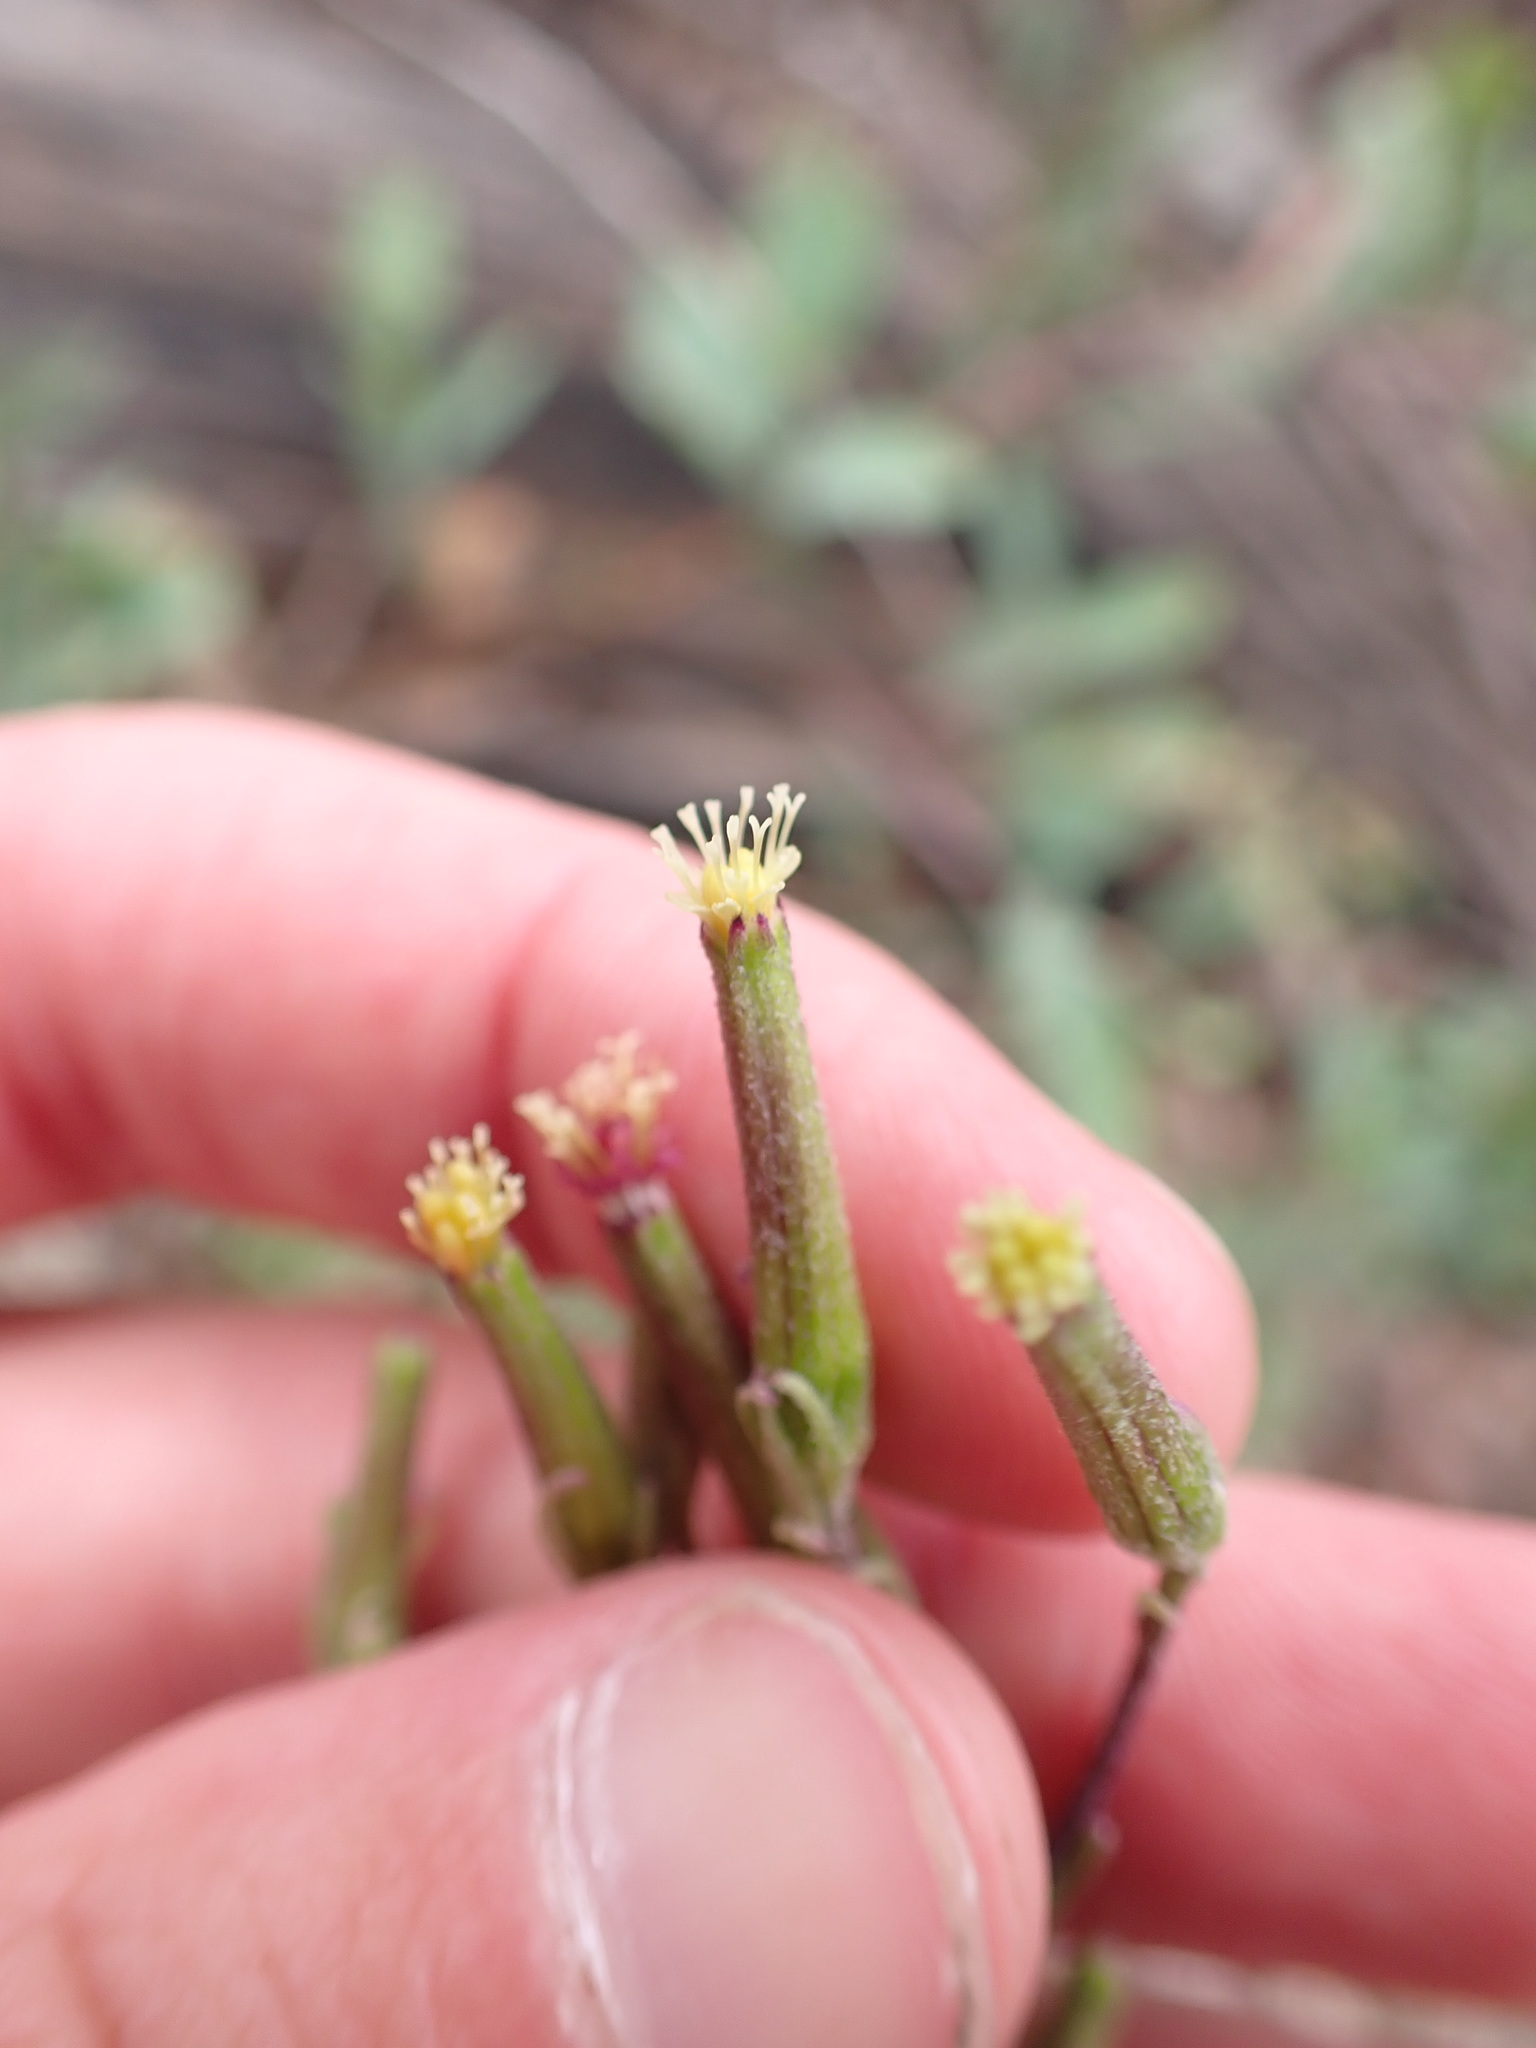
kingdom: Plantae
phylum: Tracheophyta
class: Magnoliopsida
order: Asterales
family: Asteraceae
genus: Arrhenechthites
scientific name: Arrhenechthites mixtus
